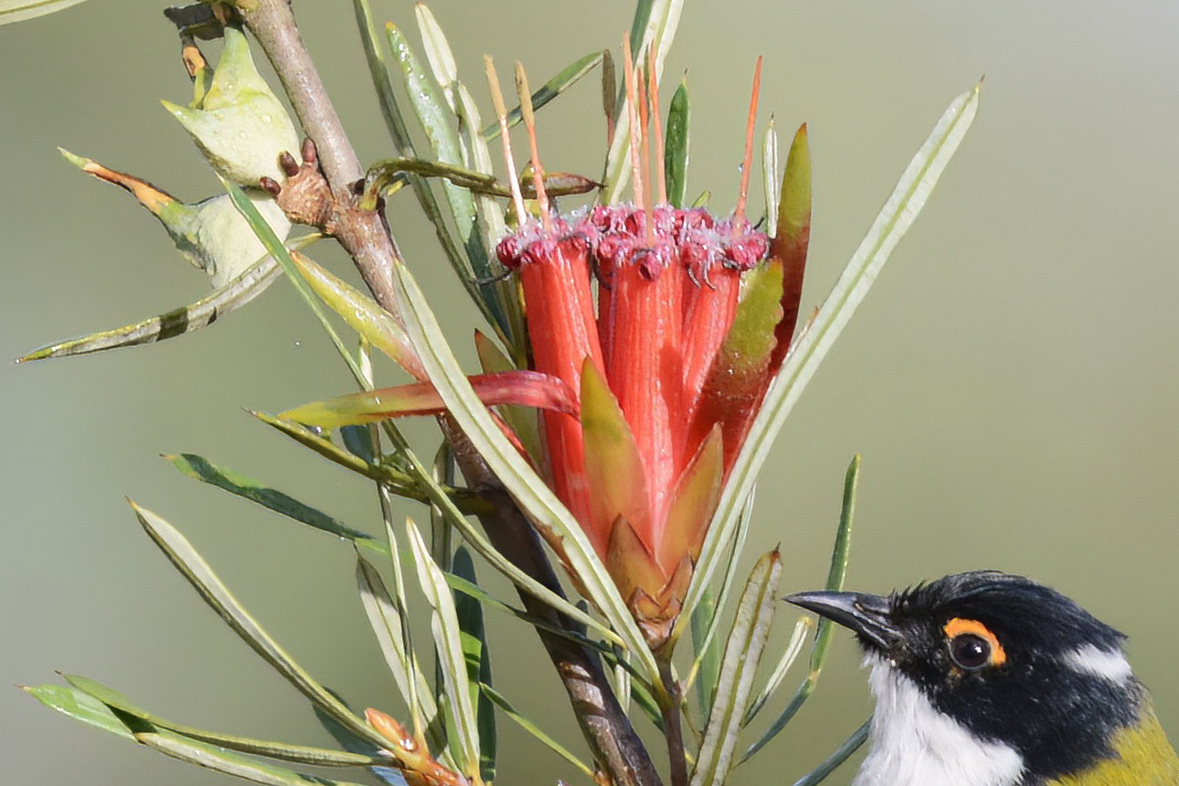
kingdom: Plantae
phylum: Tracheophyta
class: Magnoliopsida
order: Proteales
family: Proteaceae
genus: Lambertia
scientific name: Lambertia formosa
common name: Mountain-devil
